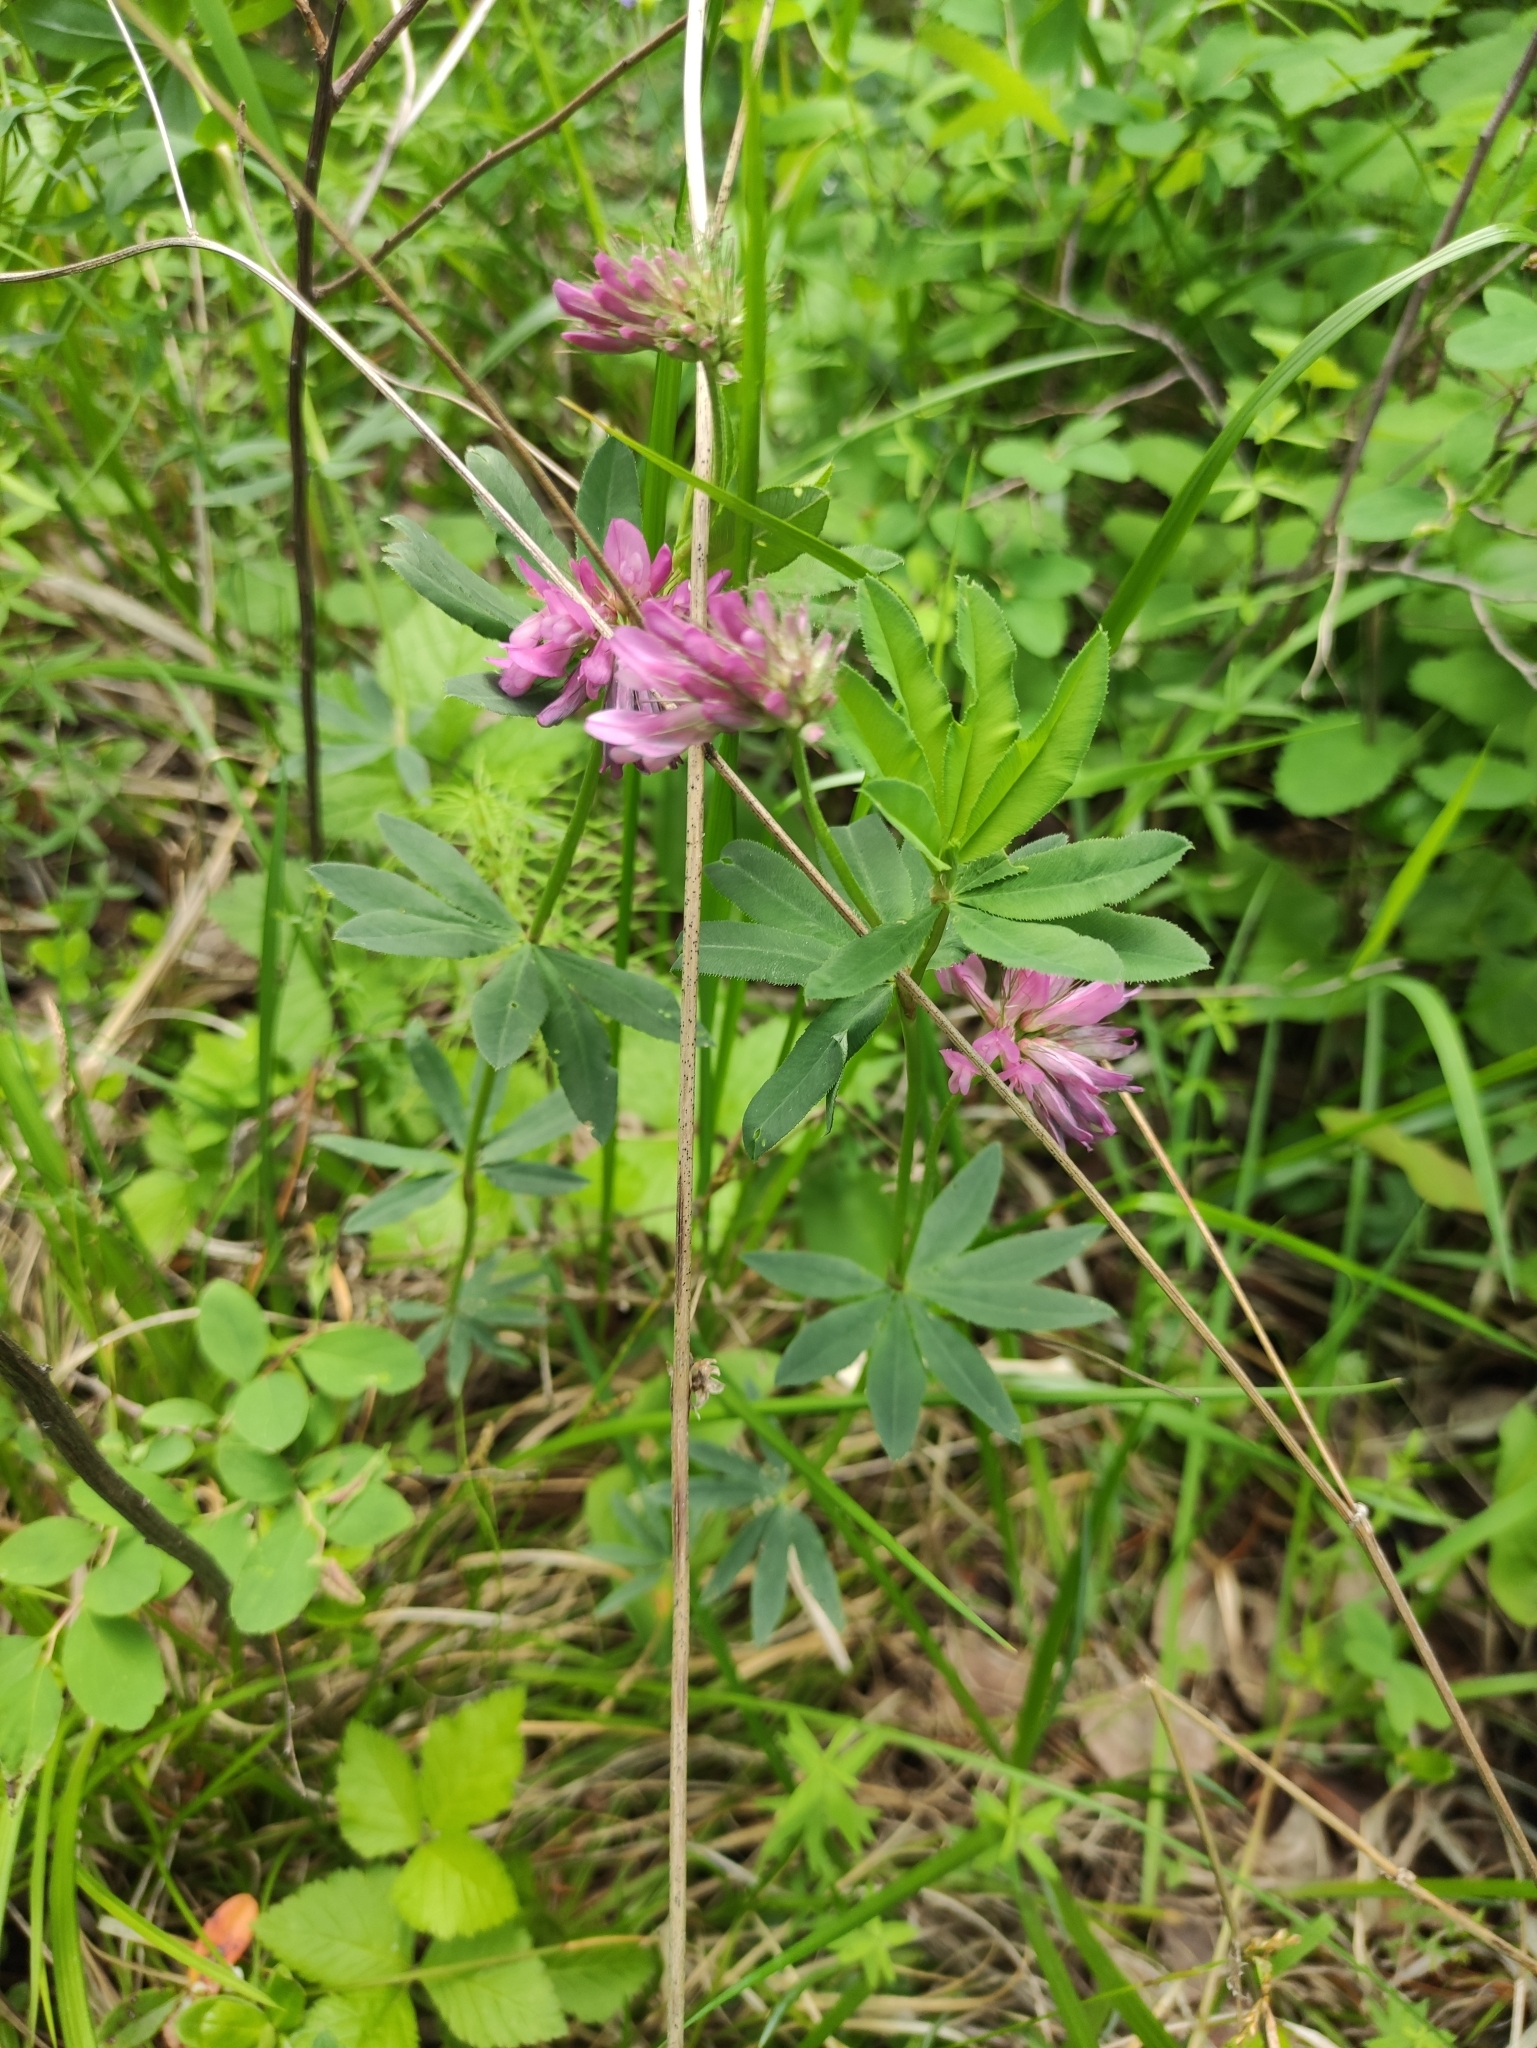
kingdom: Plantae
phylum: Tracheophyta
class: Magnoliopsida
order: Fabales
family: Fabaceae
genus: Trifolium
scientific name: Trifolium lupinaster
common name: Lupine clover
